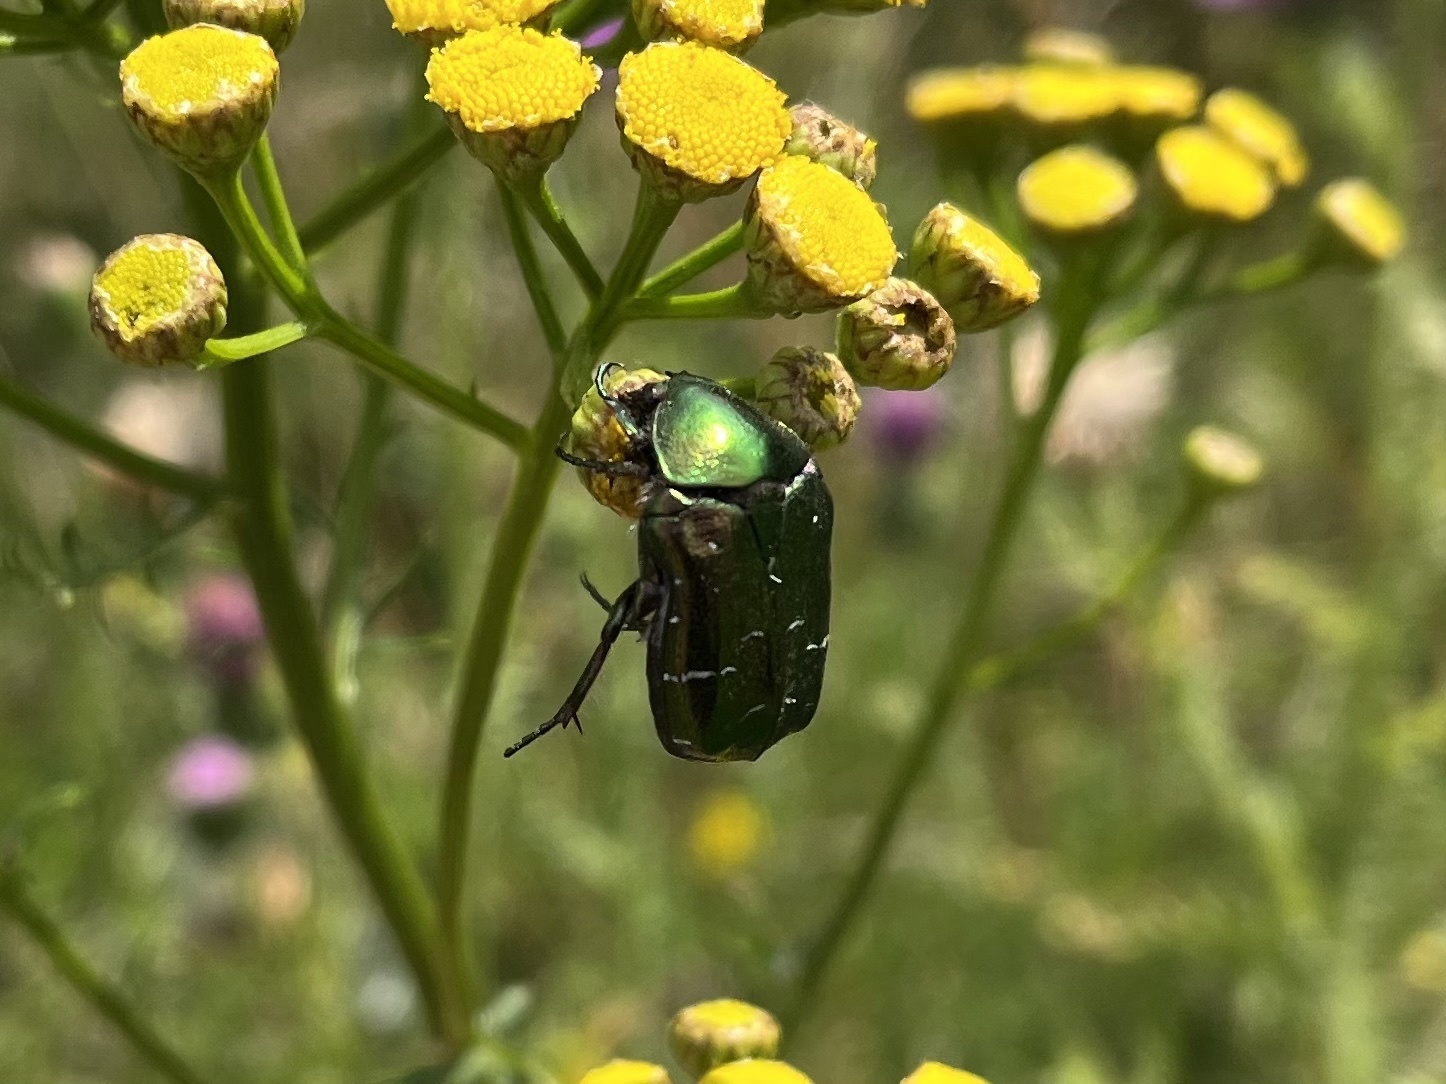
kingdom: Animalia
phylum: Arthropoda
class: Insecta
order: Coleoptera
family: Scarabaeidae
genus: Cetonia
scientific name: Cetonia aurata
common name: Rose chafer
